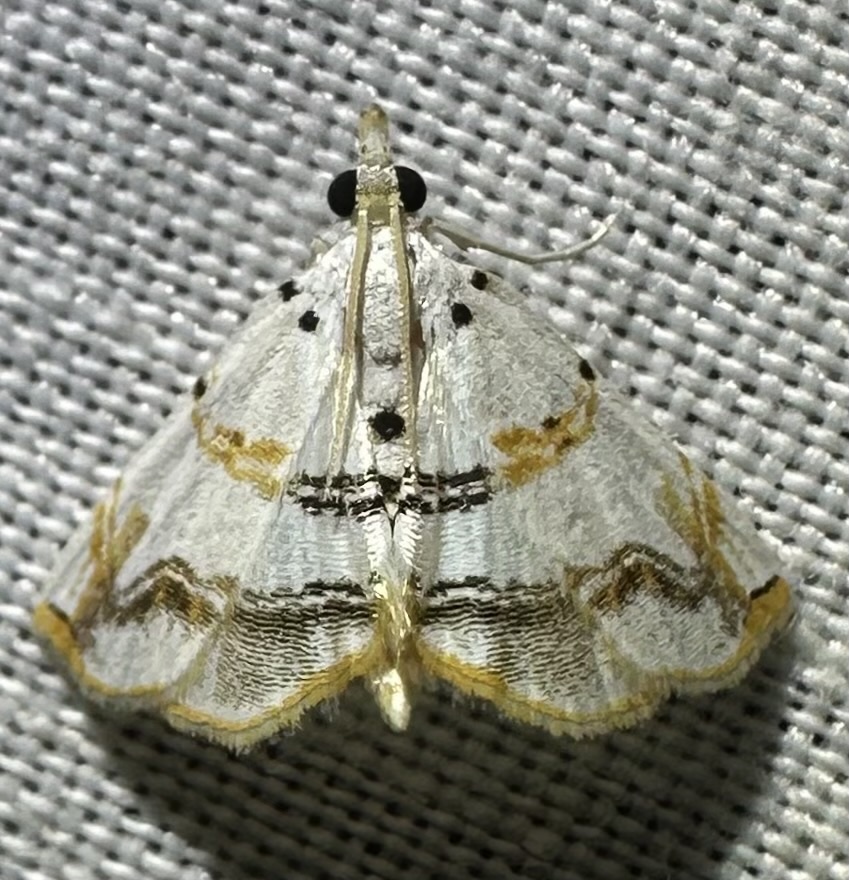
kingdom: Animalia
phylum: Arthropoda
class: Insecta
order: Lepidoptera
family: Crambidae
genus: Trichophysetis
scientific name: Trichophysetis flavimargo
